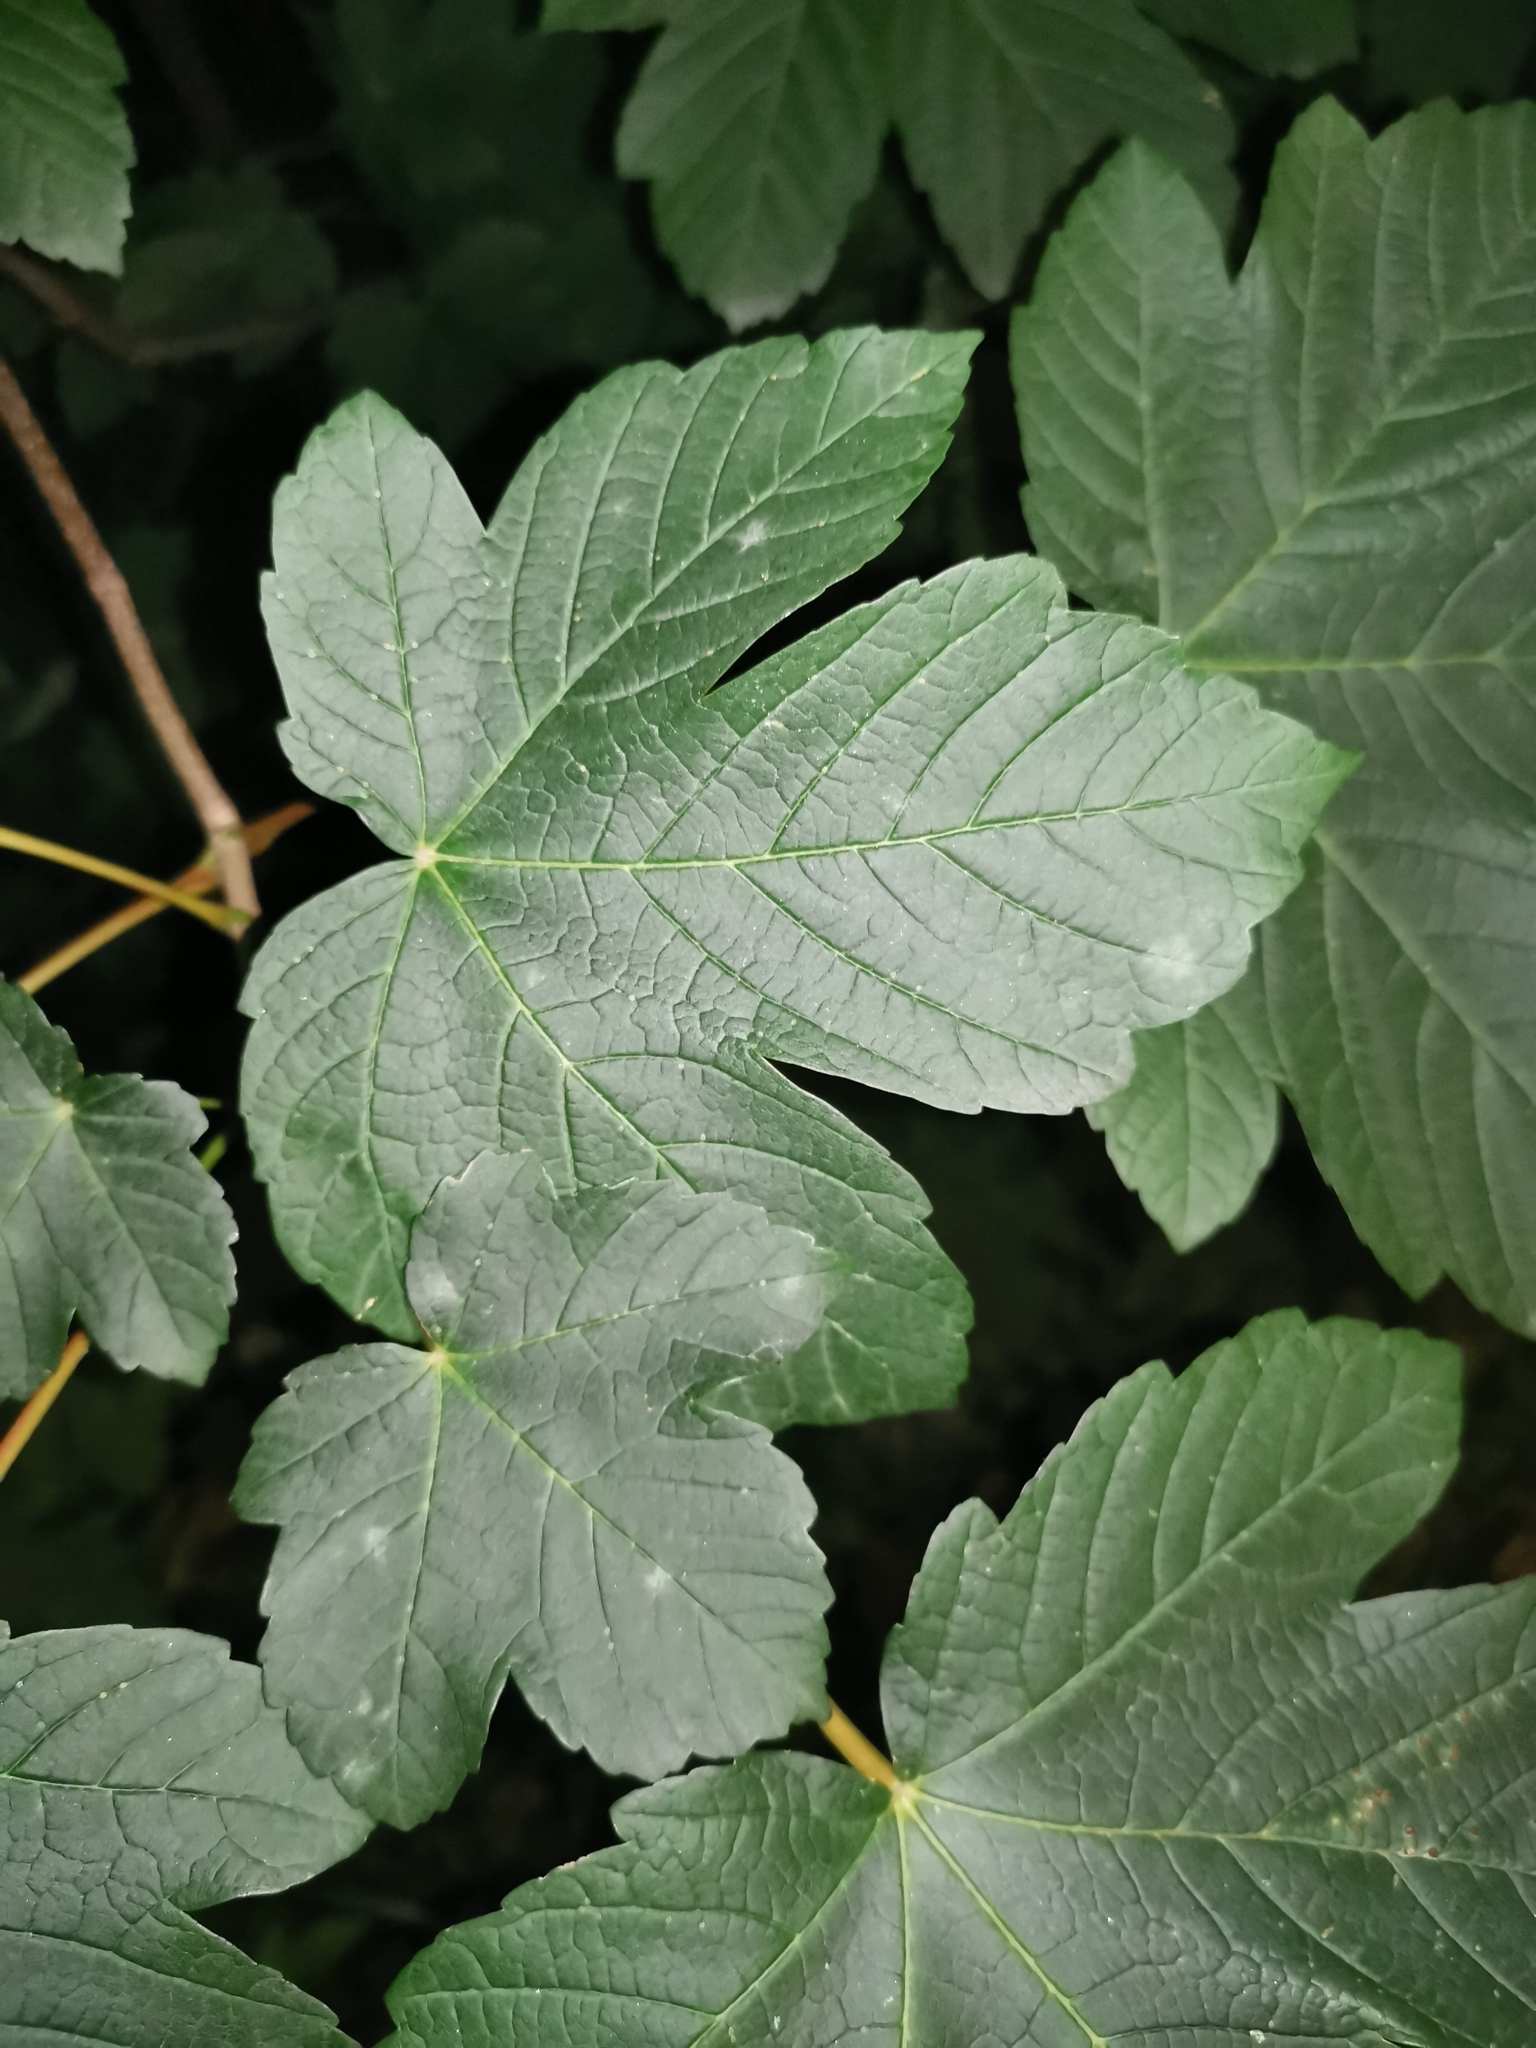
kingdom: Plantae
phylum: Tracheophyta
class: Magnoliopsida
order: Sapindales
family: Sapindaceae
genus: Acer
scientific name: Acer pseudoplatanus
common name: Sycamore
